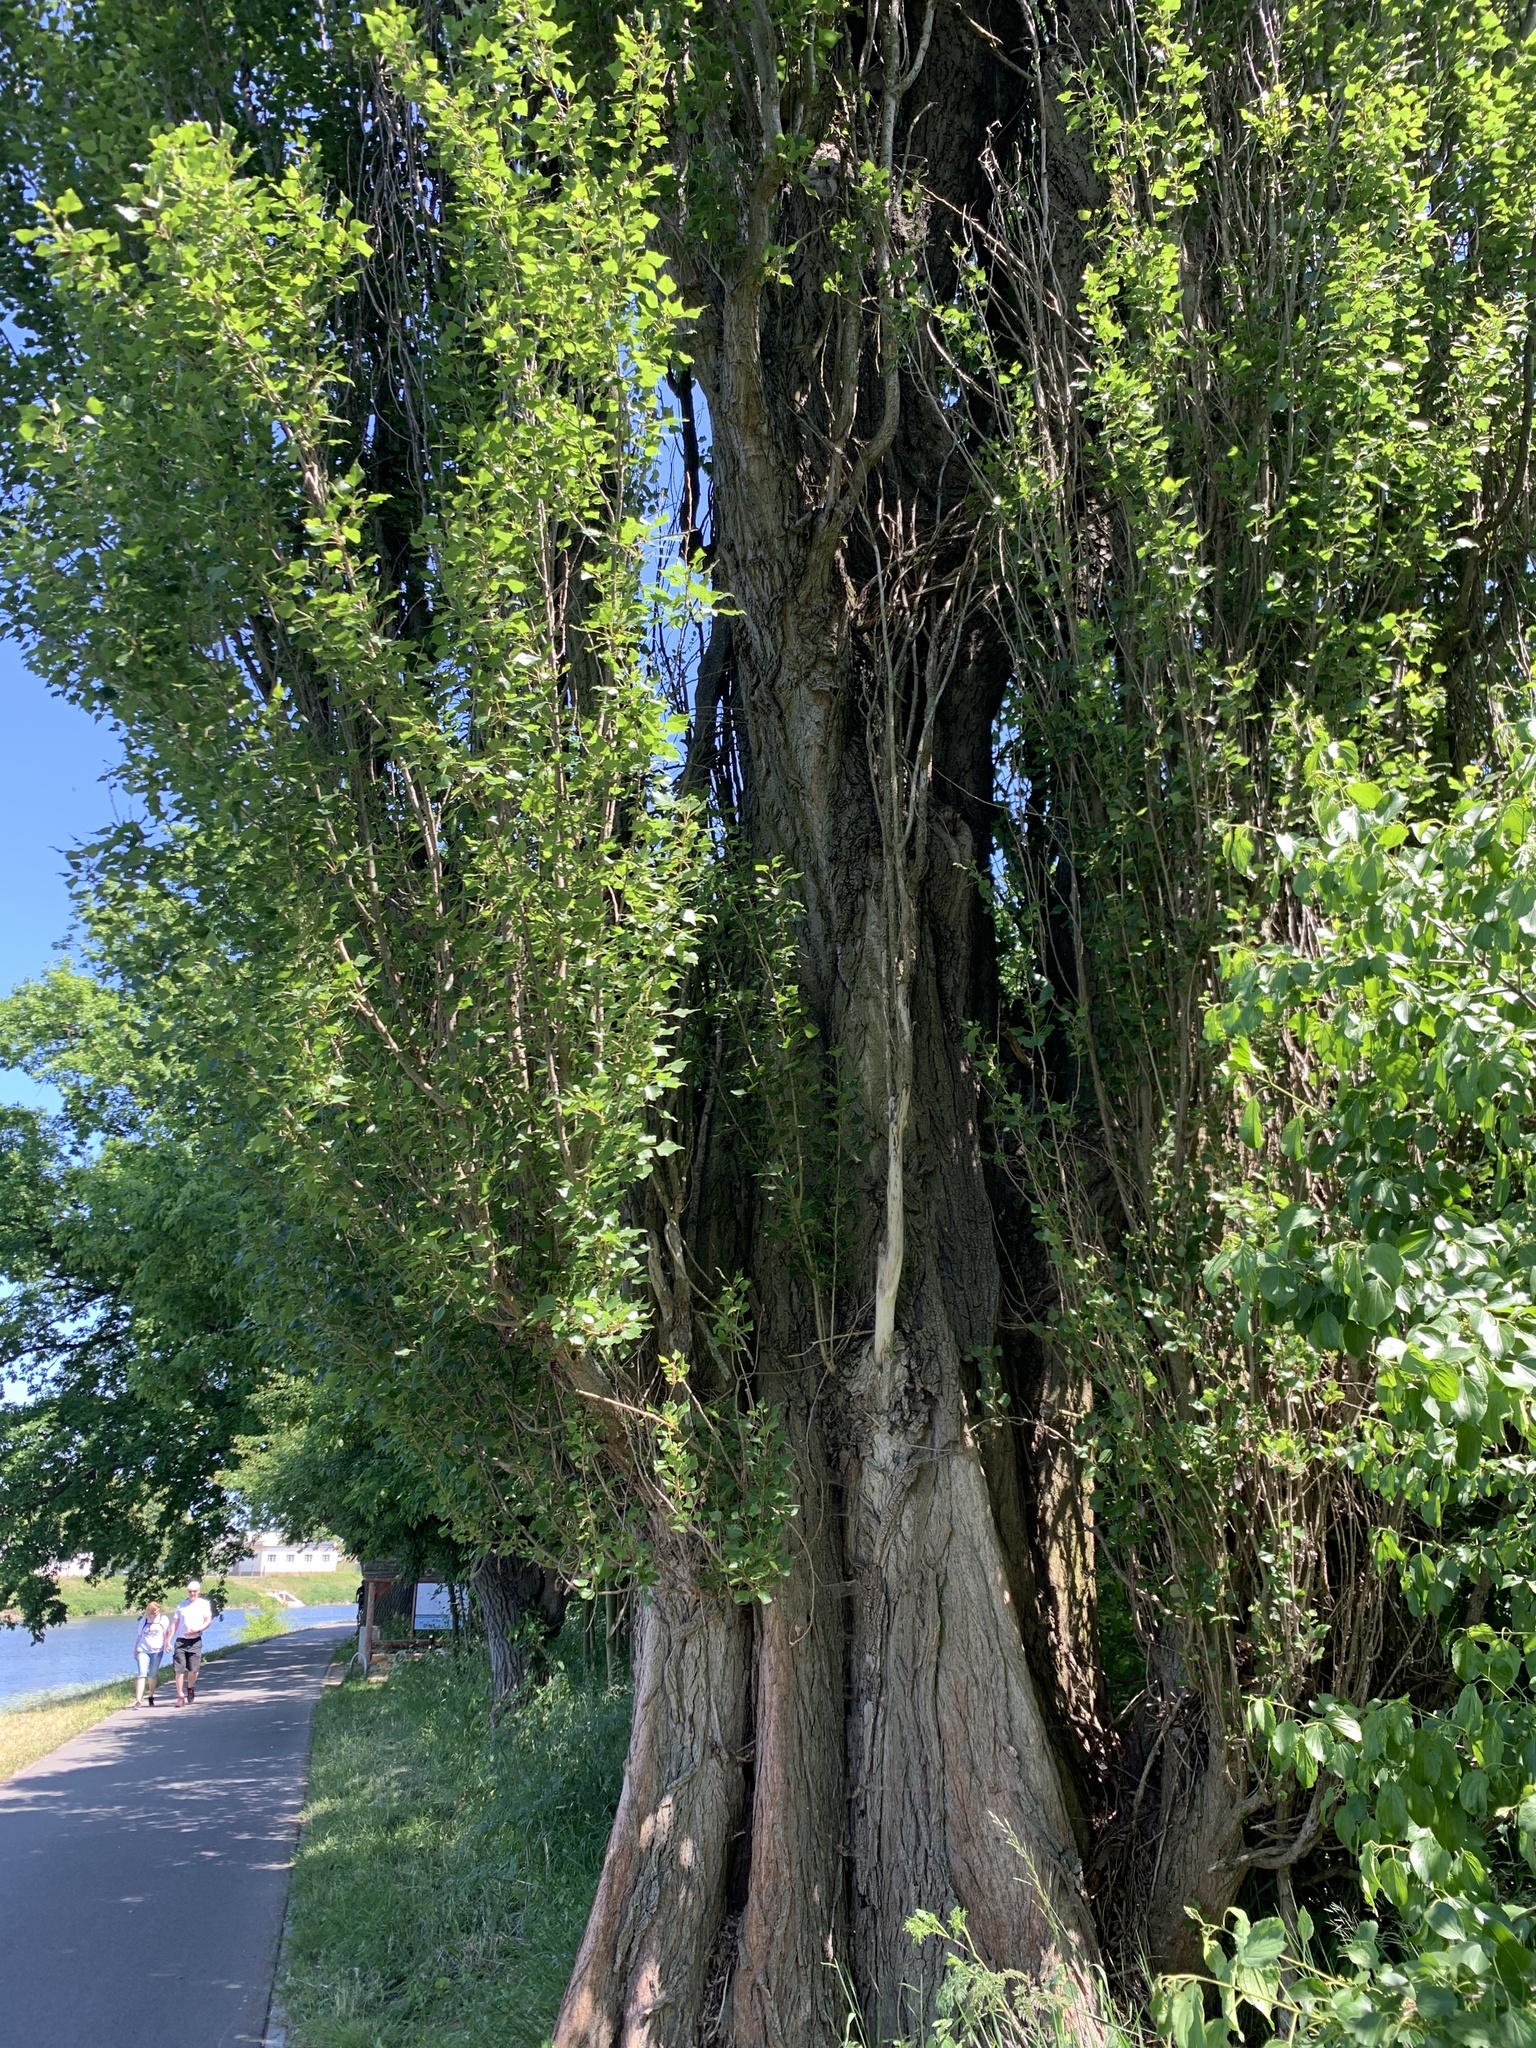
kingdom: Plantae
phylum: Tracheophyta
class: Magnoliopsida
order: Malpighiales
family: Salicaceae
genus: Populus
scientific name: Populus nigra
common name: Black poplar
